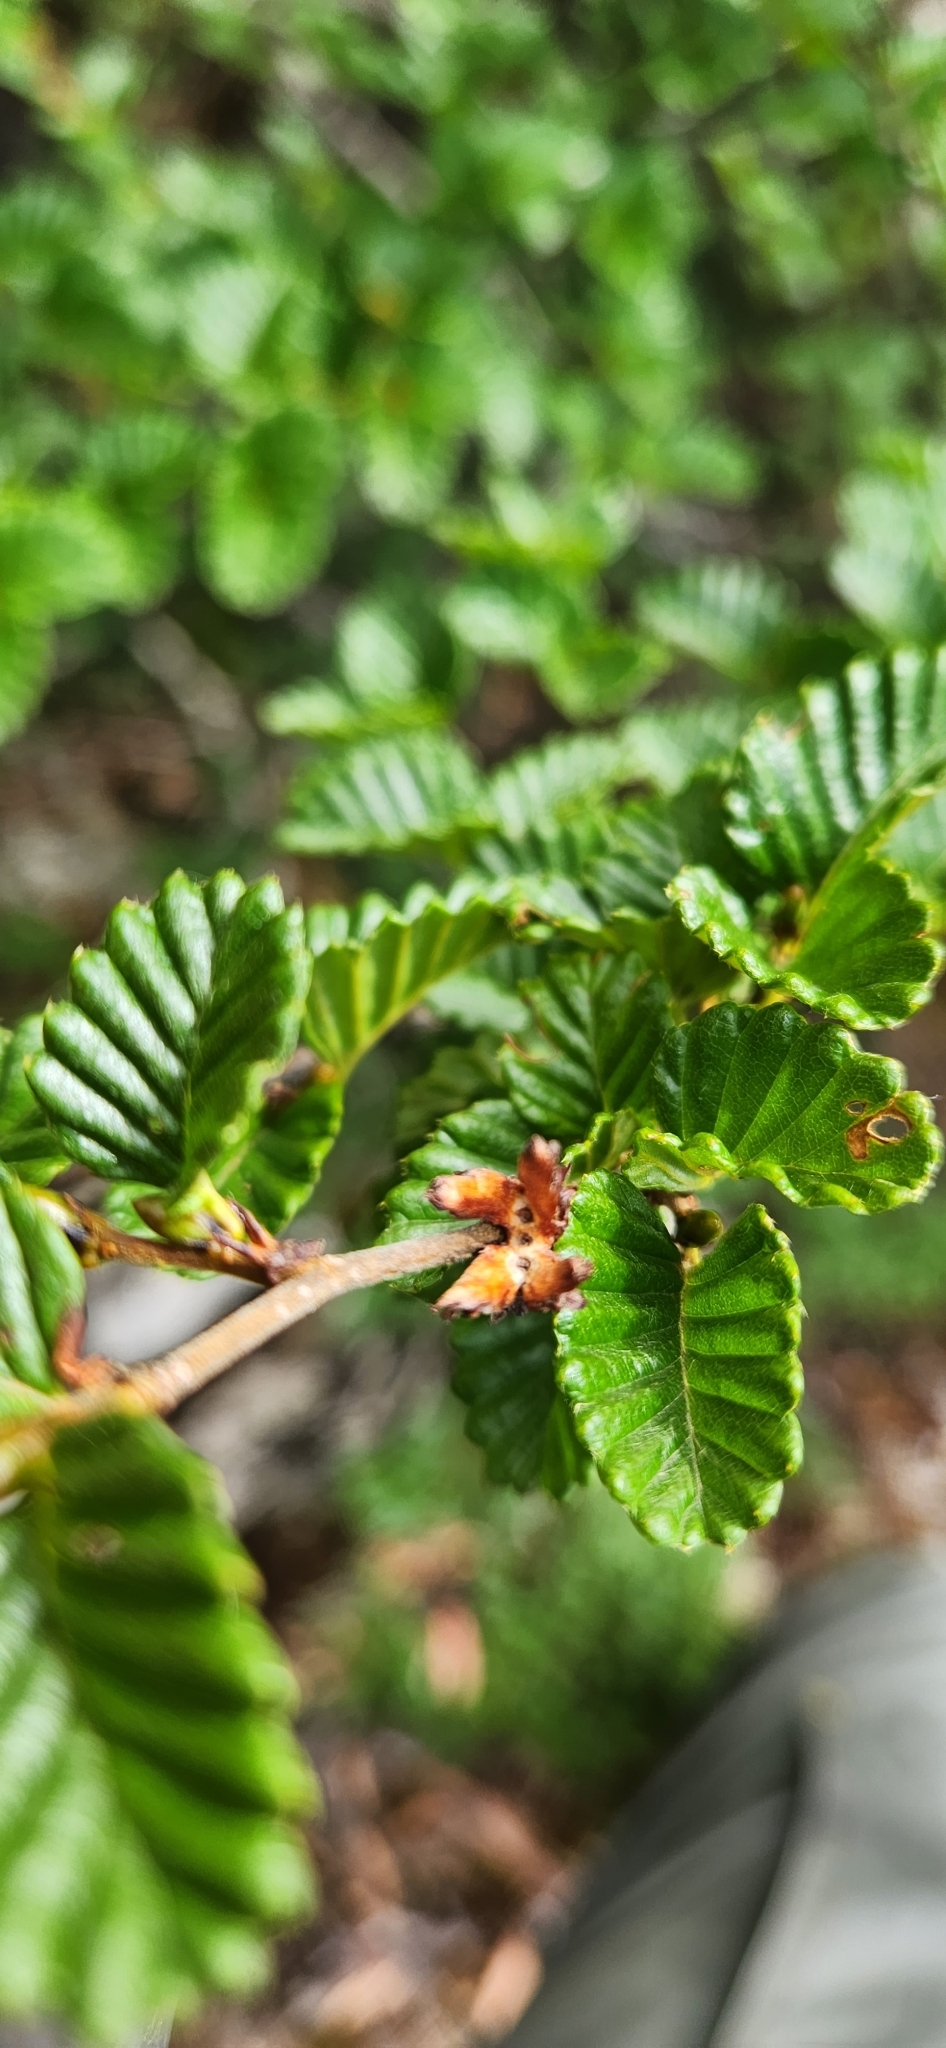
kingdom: Plantae
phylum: Tracheophyta
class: Magnoliopsida
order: Fagales
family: Nothofagaceae
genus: Nothofagus
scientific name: Nothofagus gunnii
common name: Tanglefoot
